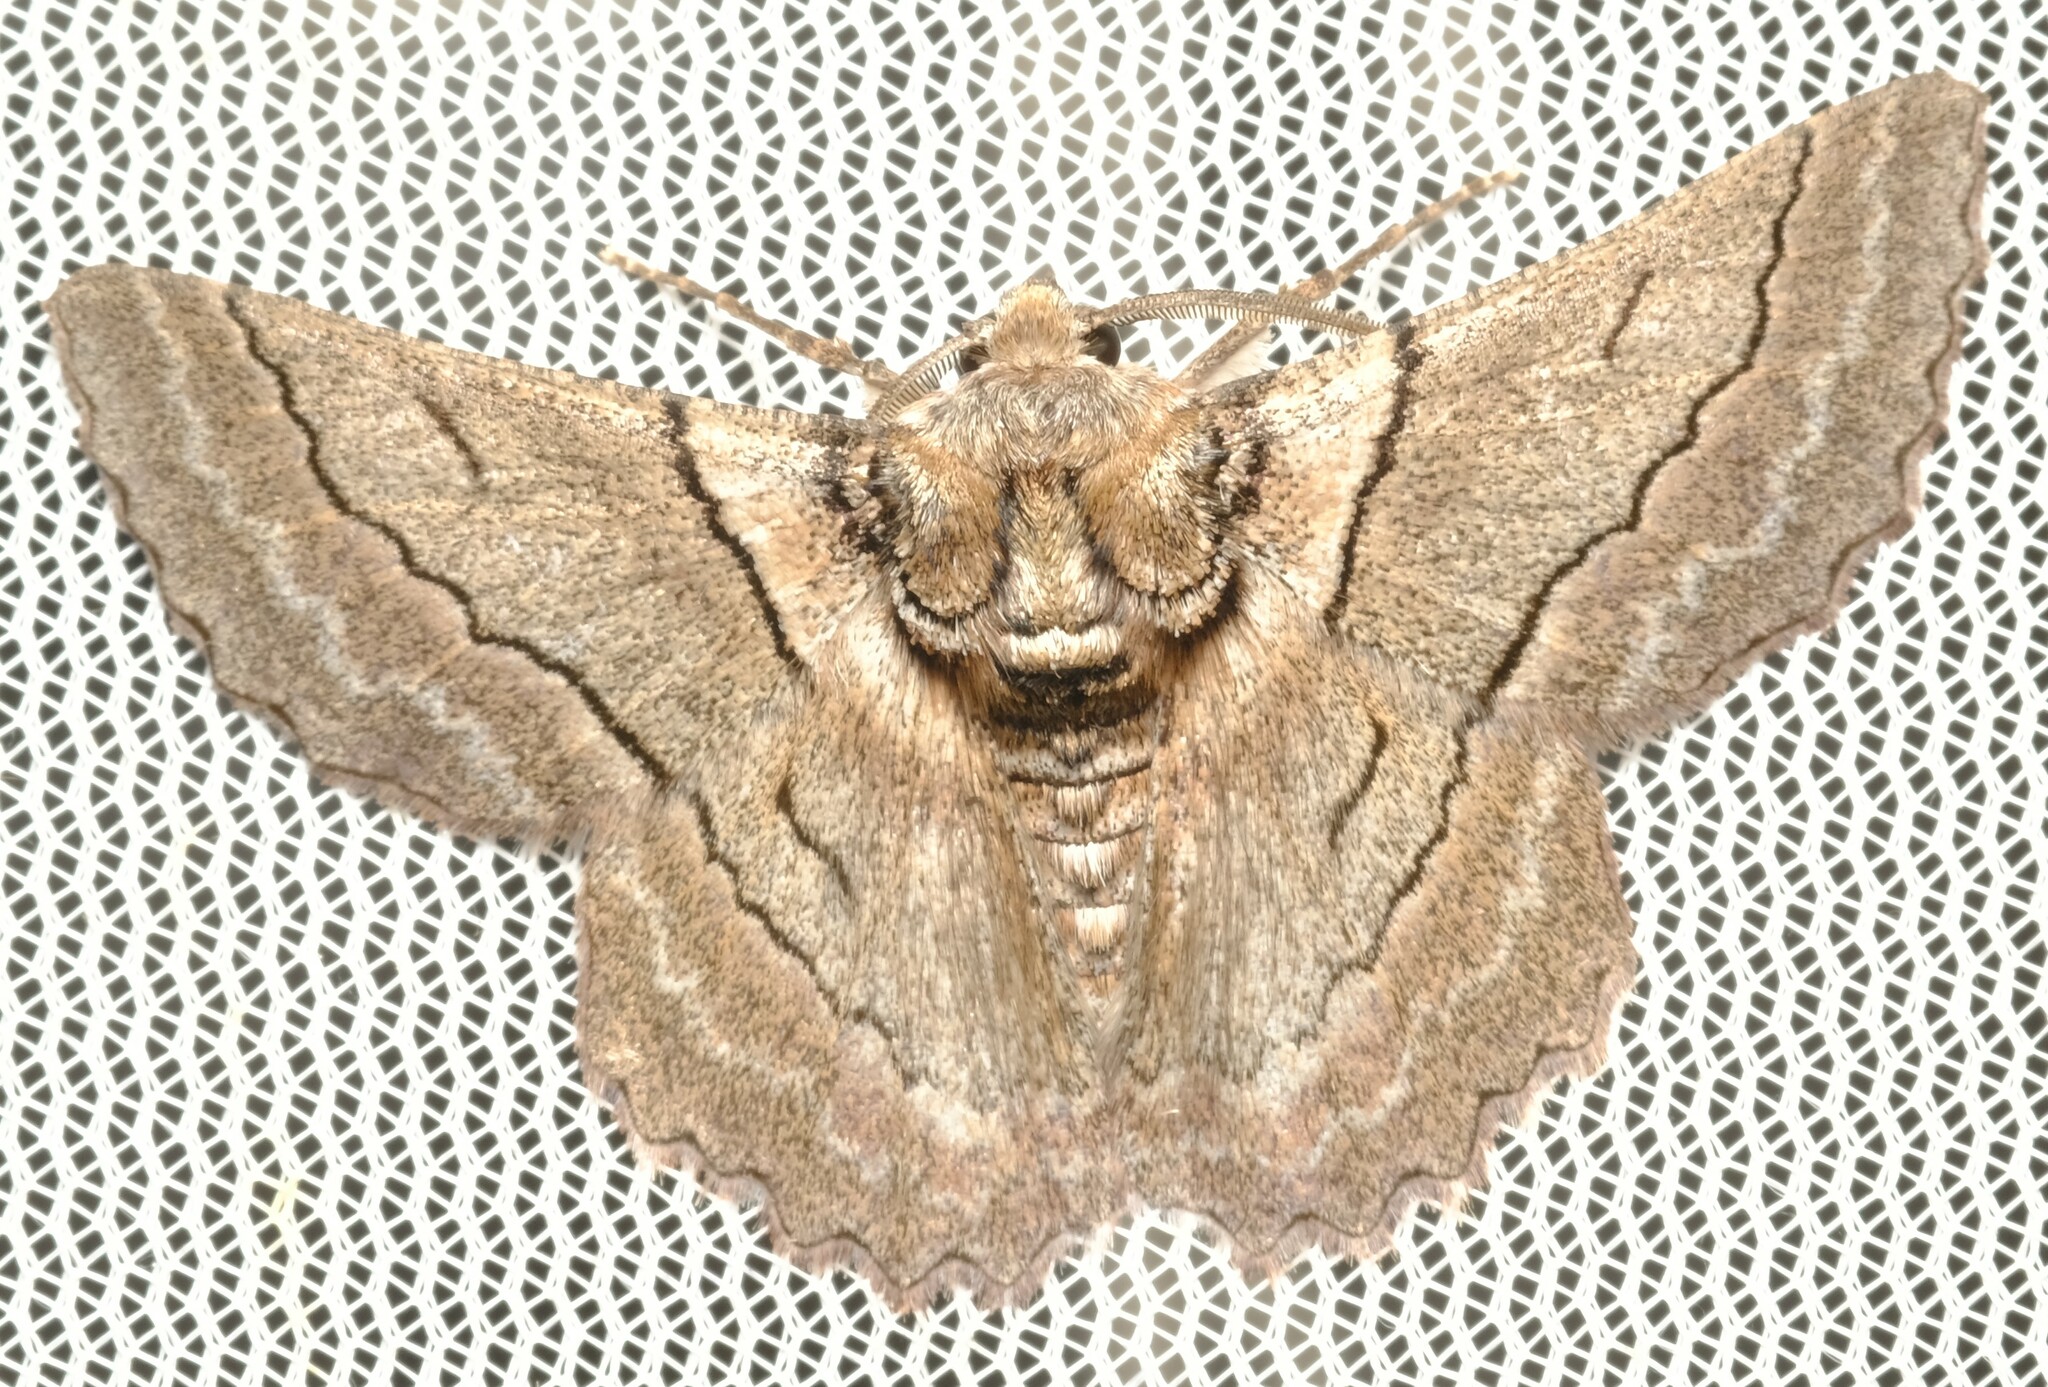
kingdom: Animalia
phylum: Arthropoda
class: Insecta
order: Lepidoptera
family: Geometridae
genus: Hypobapta
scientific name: Hypobapta tachyhalotaria
